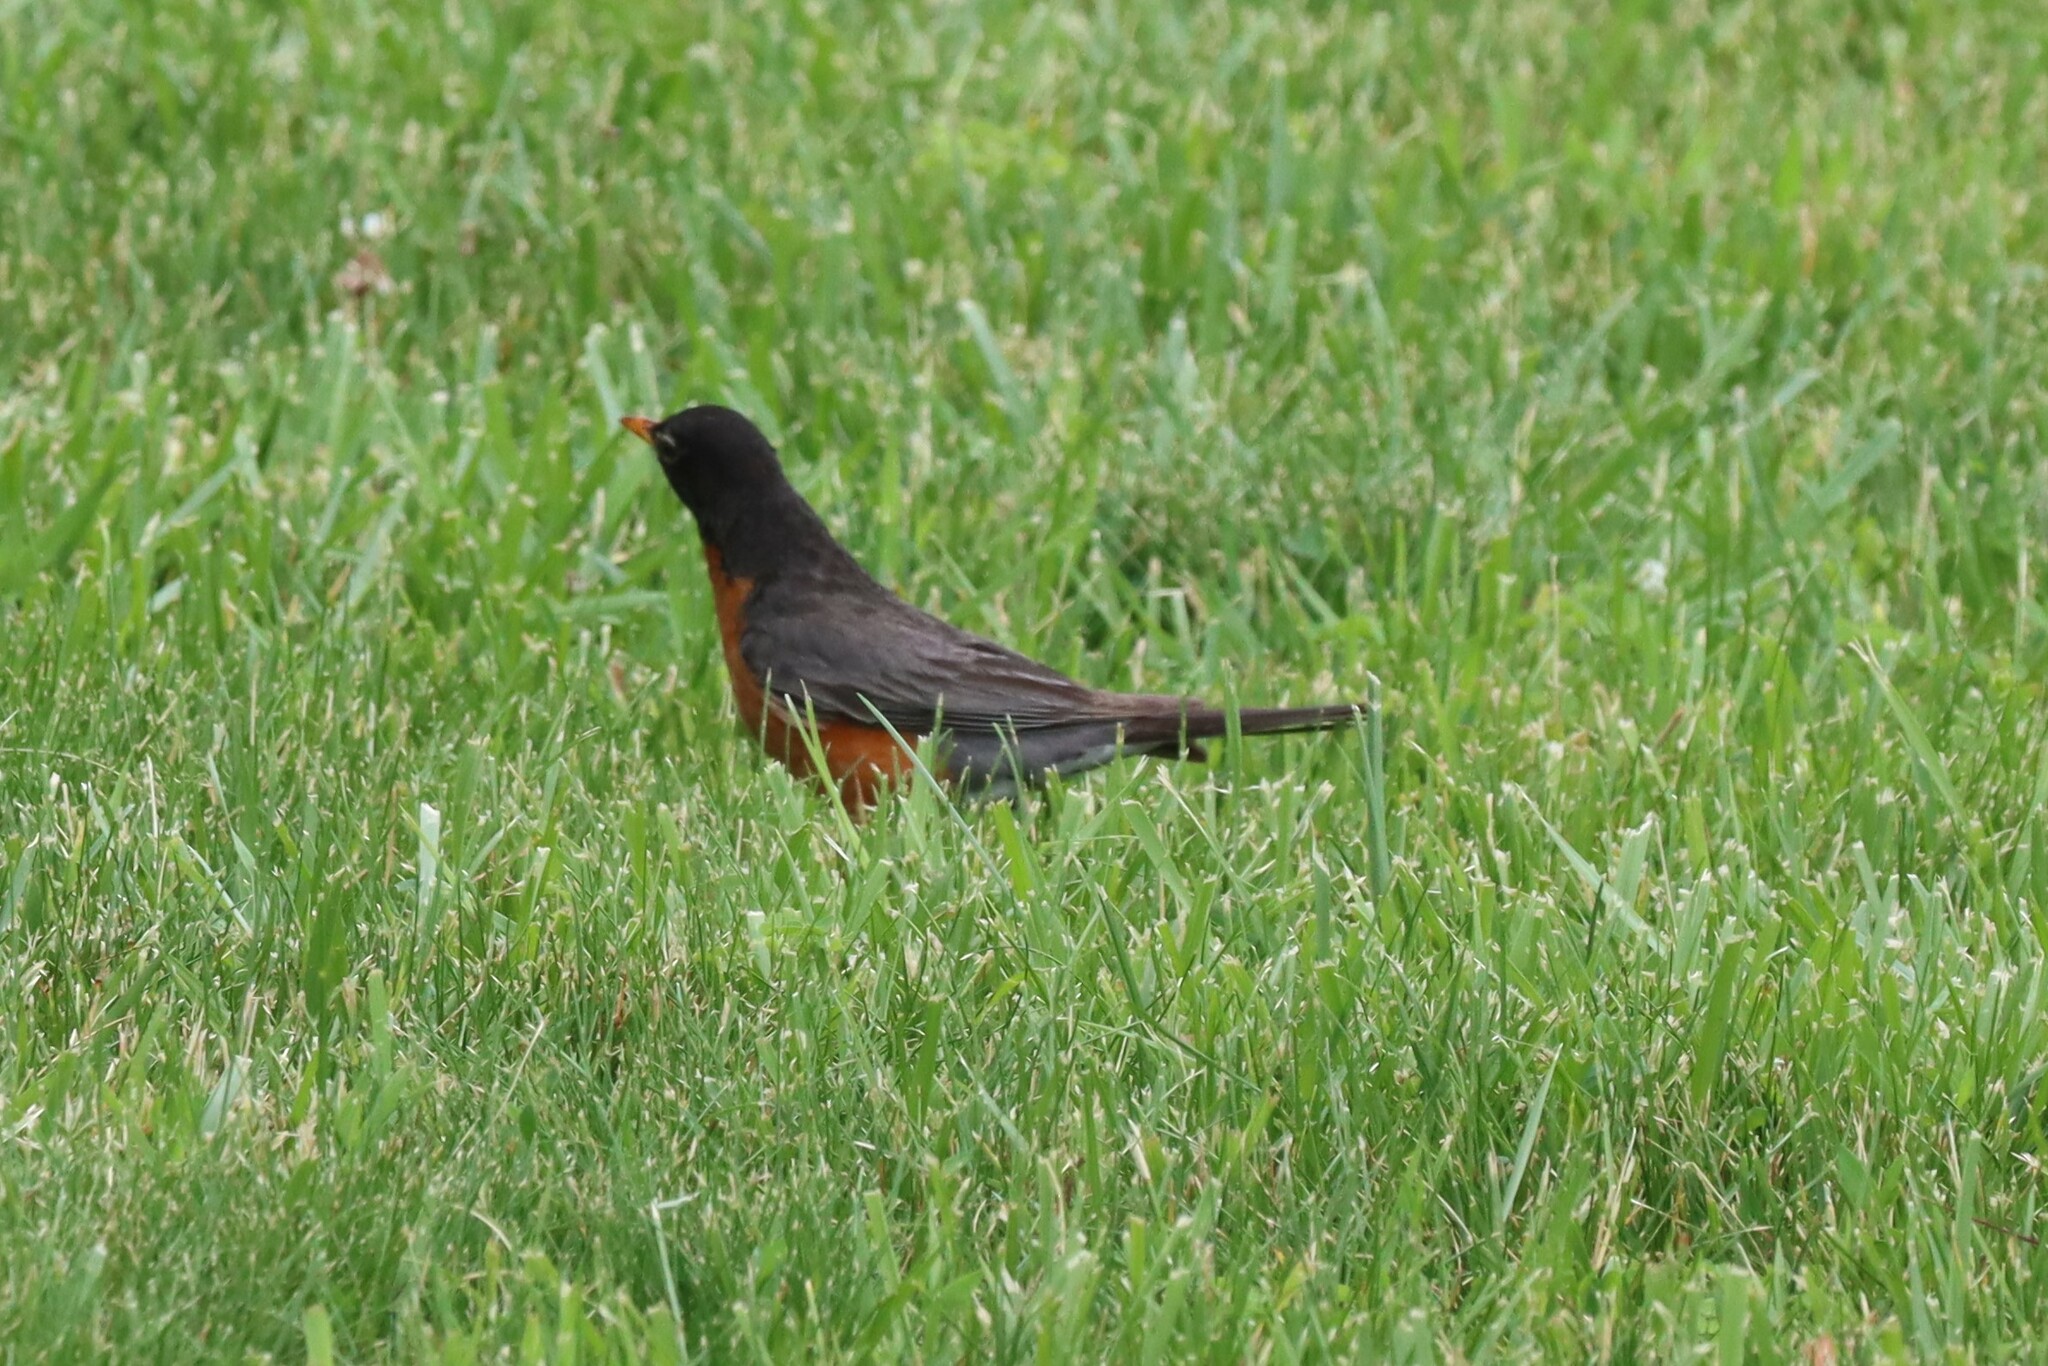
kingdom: Animalia
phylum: Chordata
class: Aves
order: Passeriformes
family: Turdidae
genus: Turdus
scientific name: Turdus migratorius
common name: American robin
